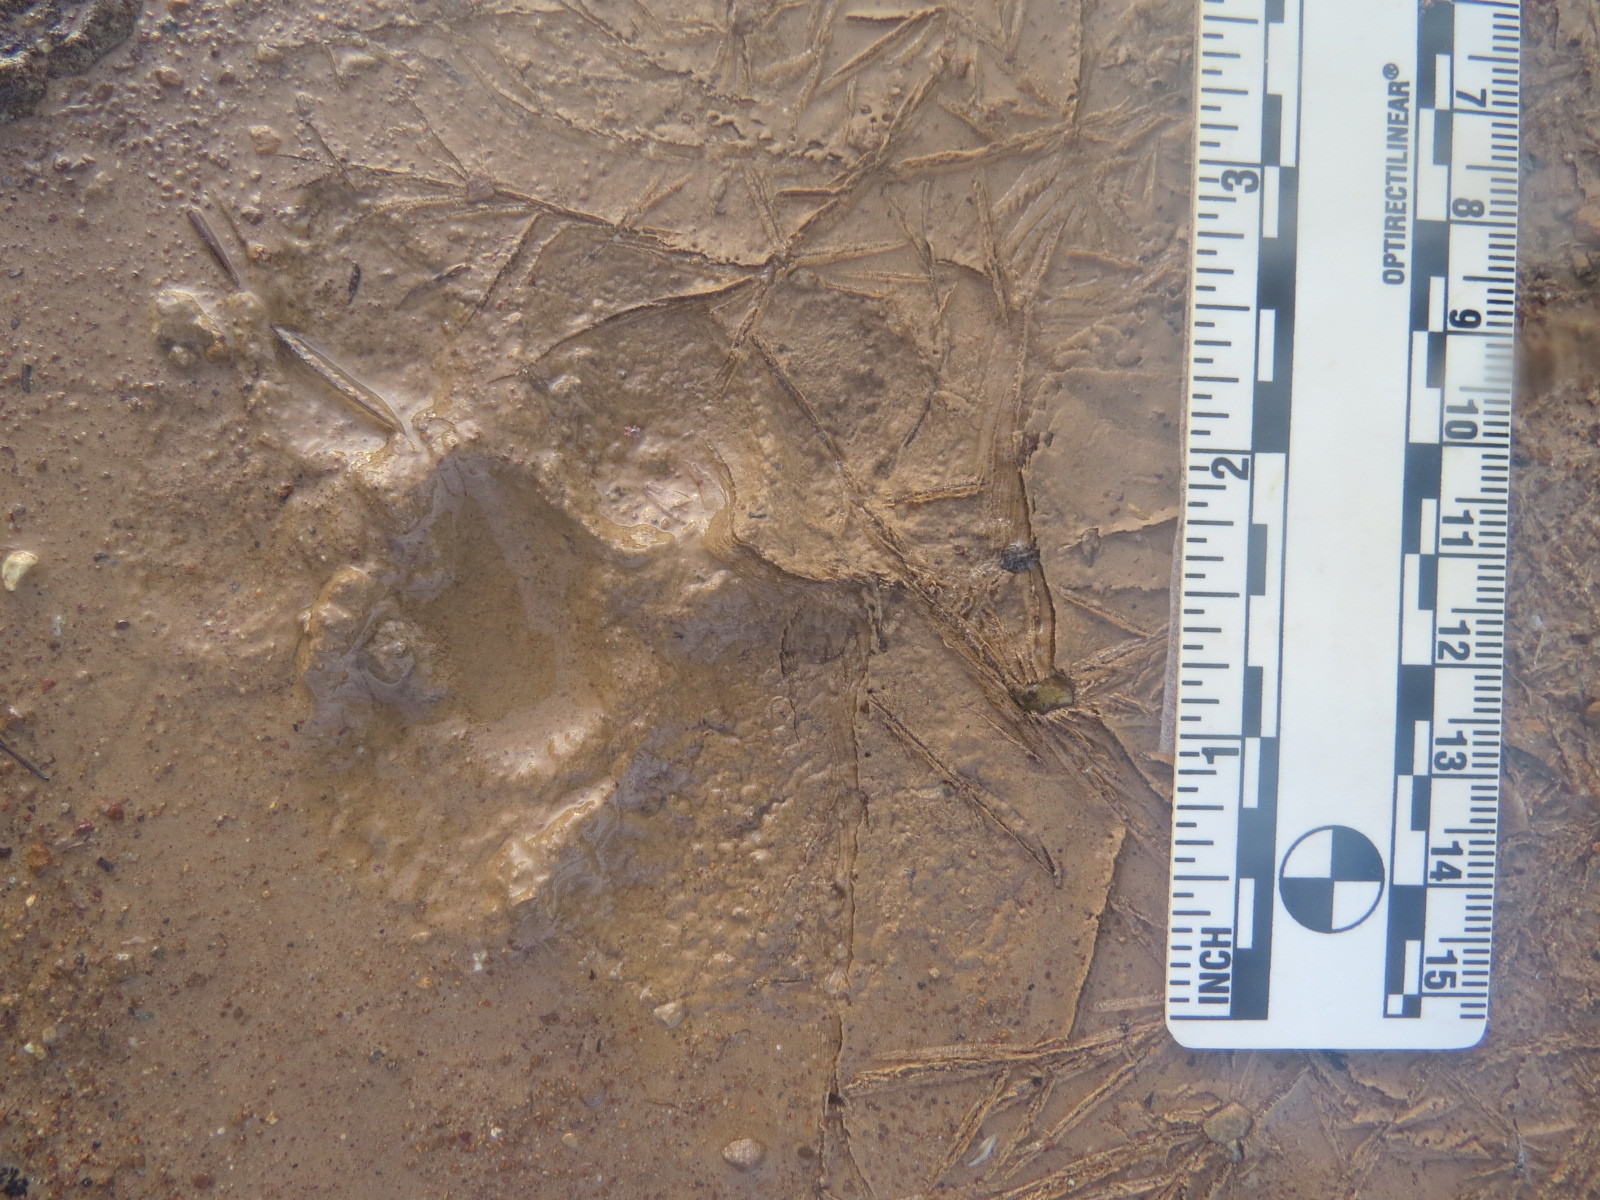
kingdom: Animalia
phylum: Chordata
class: Mammalia
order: Carnivora
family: Felidae
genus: Puma
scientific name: Puma concolor
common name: Puma
